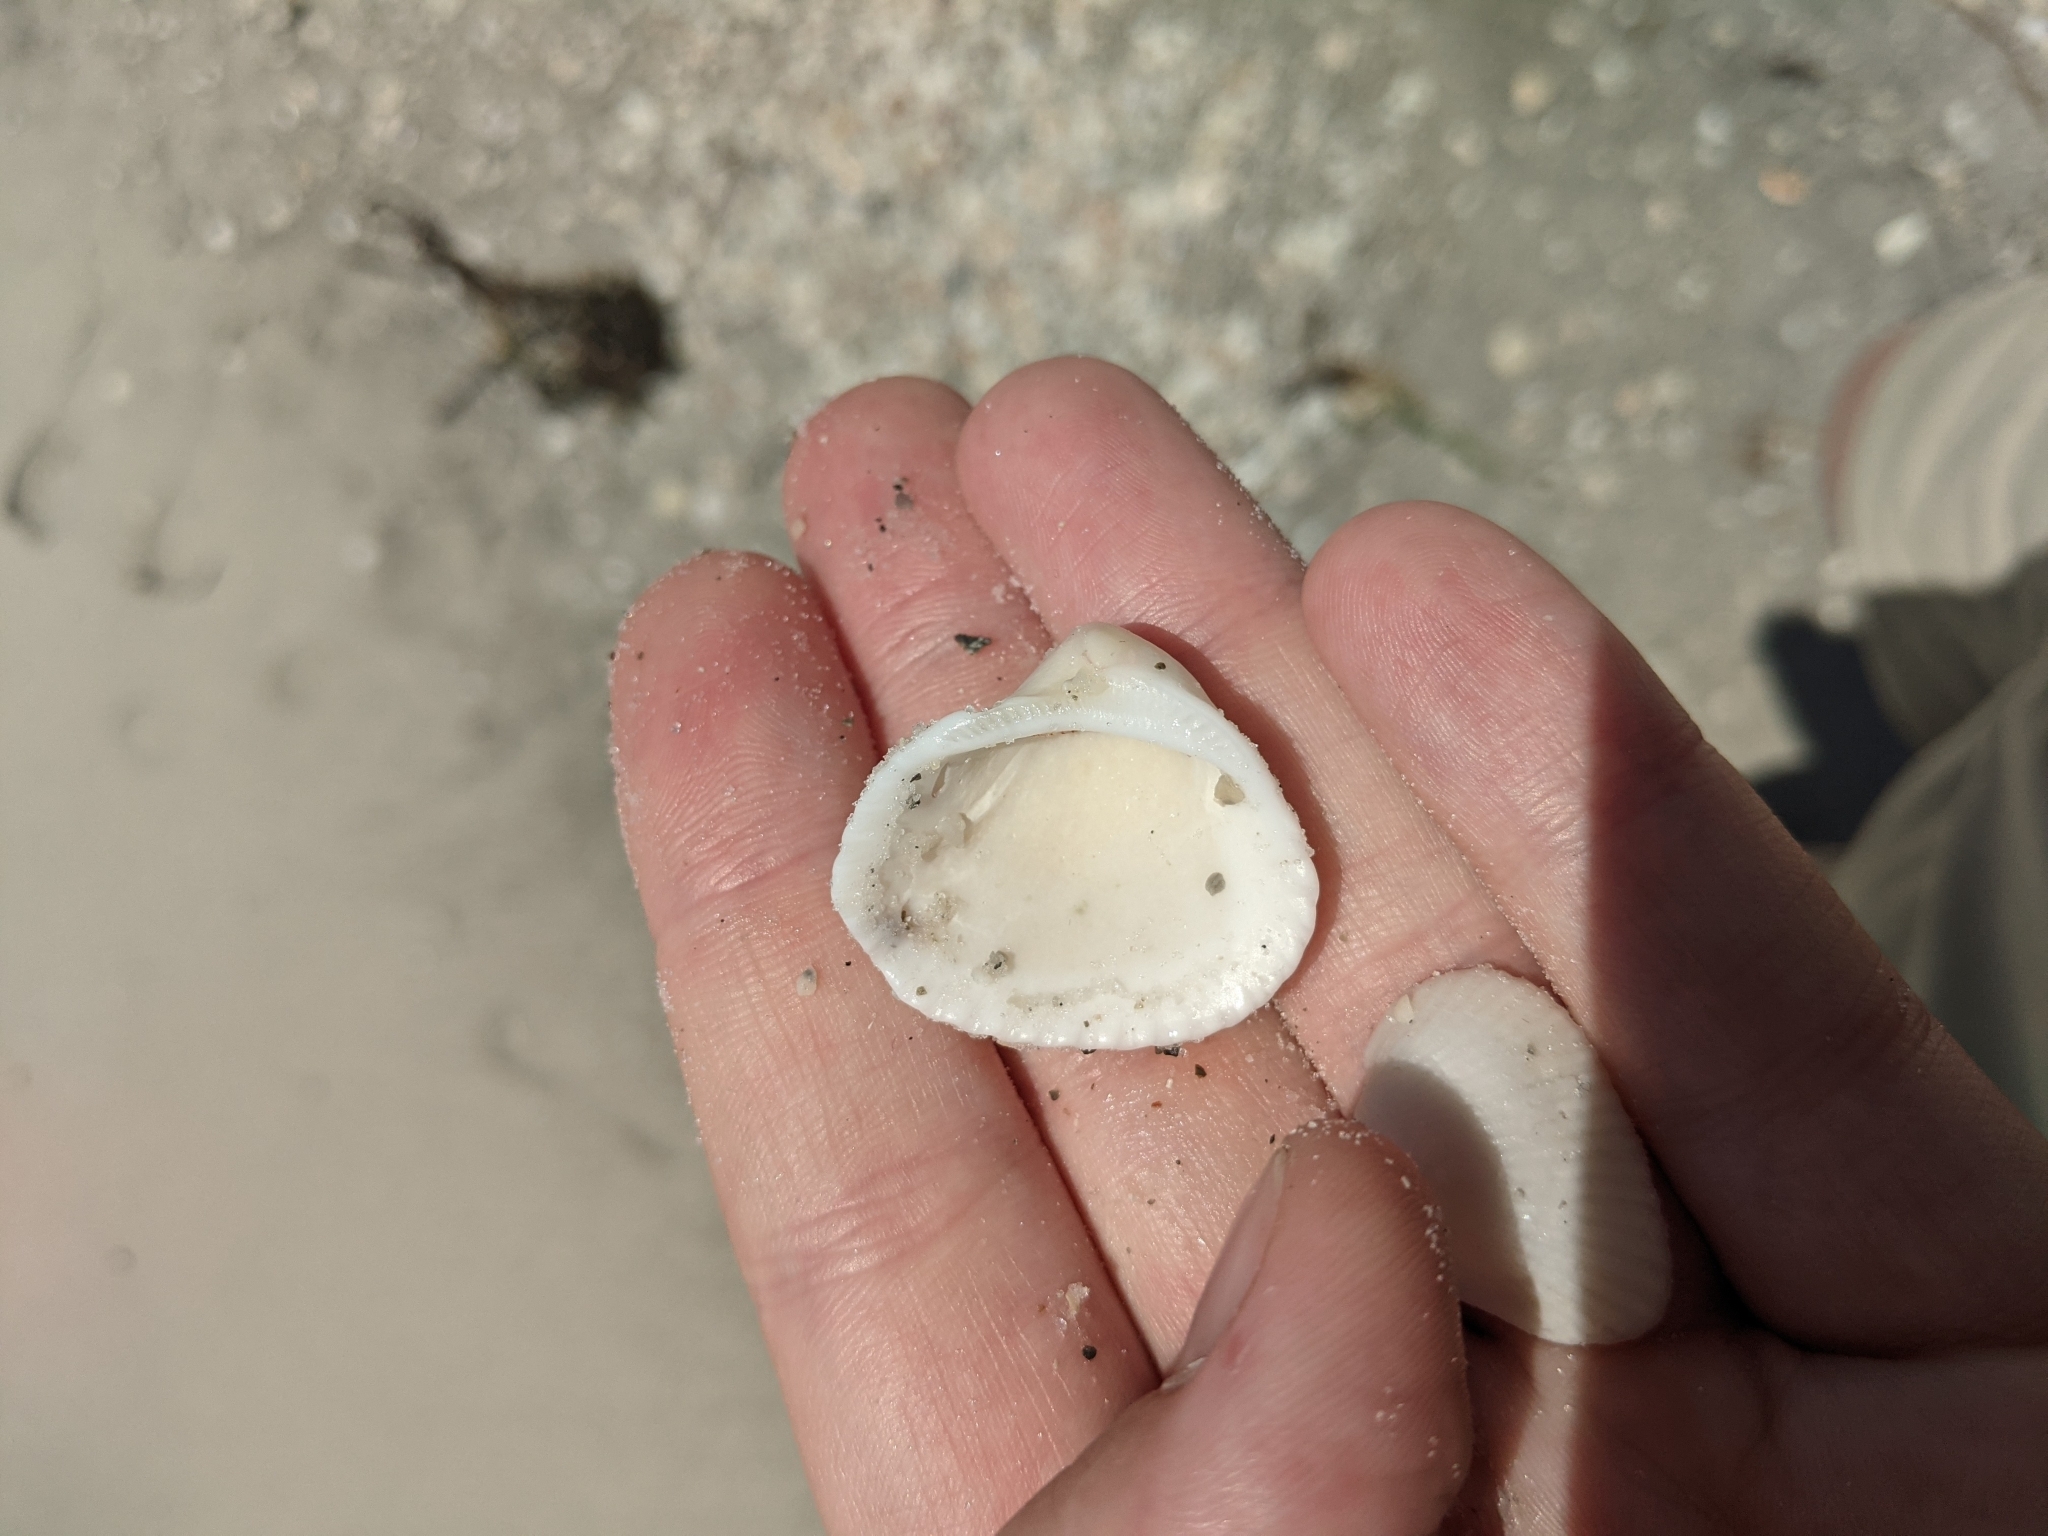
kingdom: Animalia
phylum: Mollusca
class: Bivalvia
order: Arcida
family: Noetiidae
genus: Noetia
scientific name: Noetia ponderosa
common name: Ponderous ark
